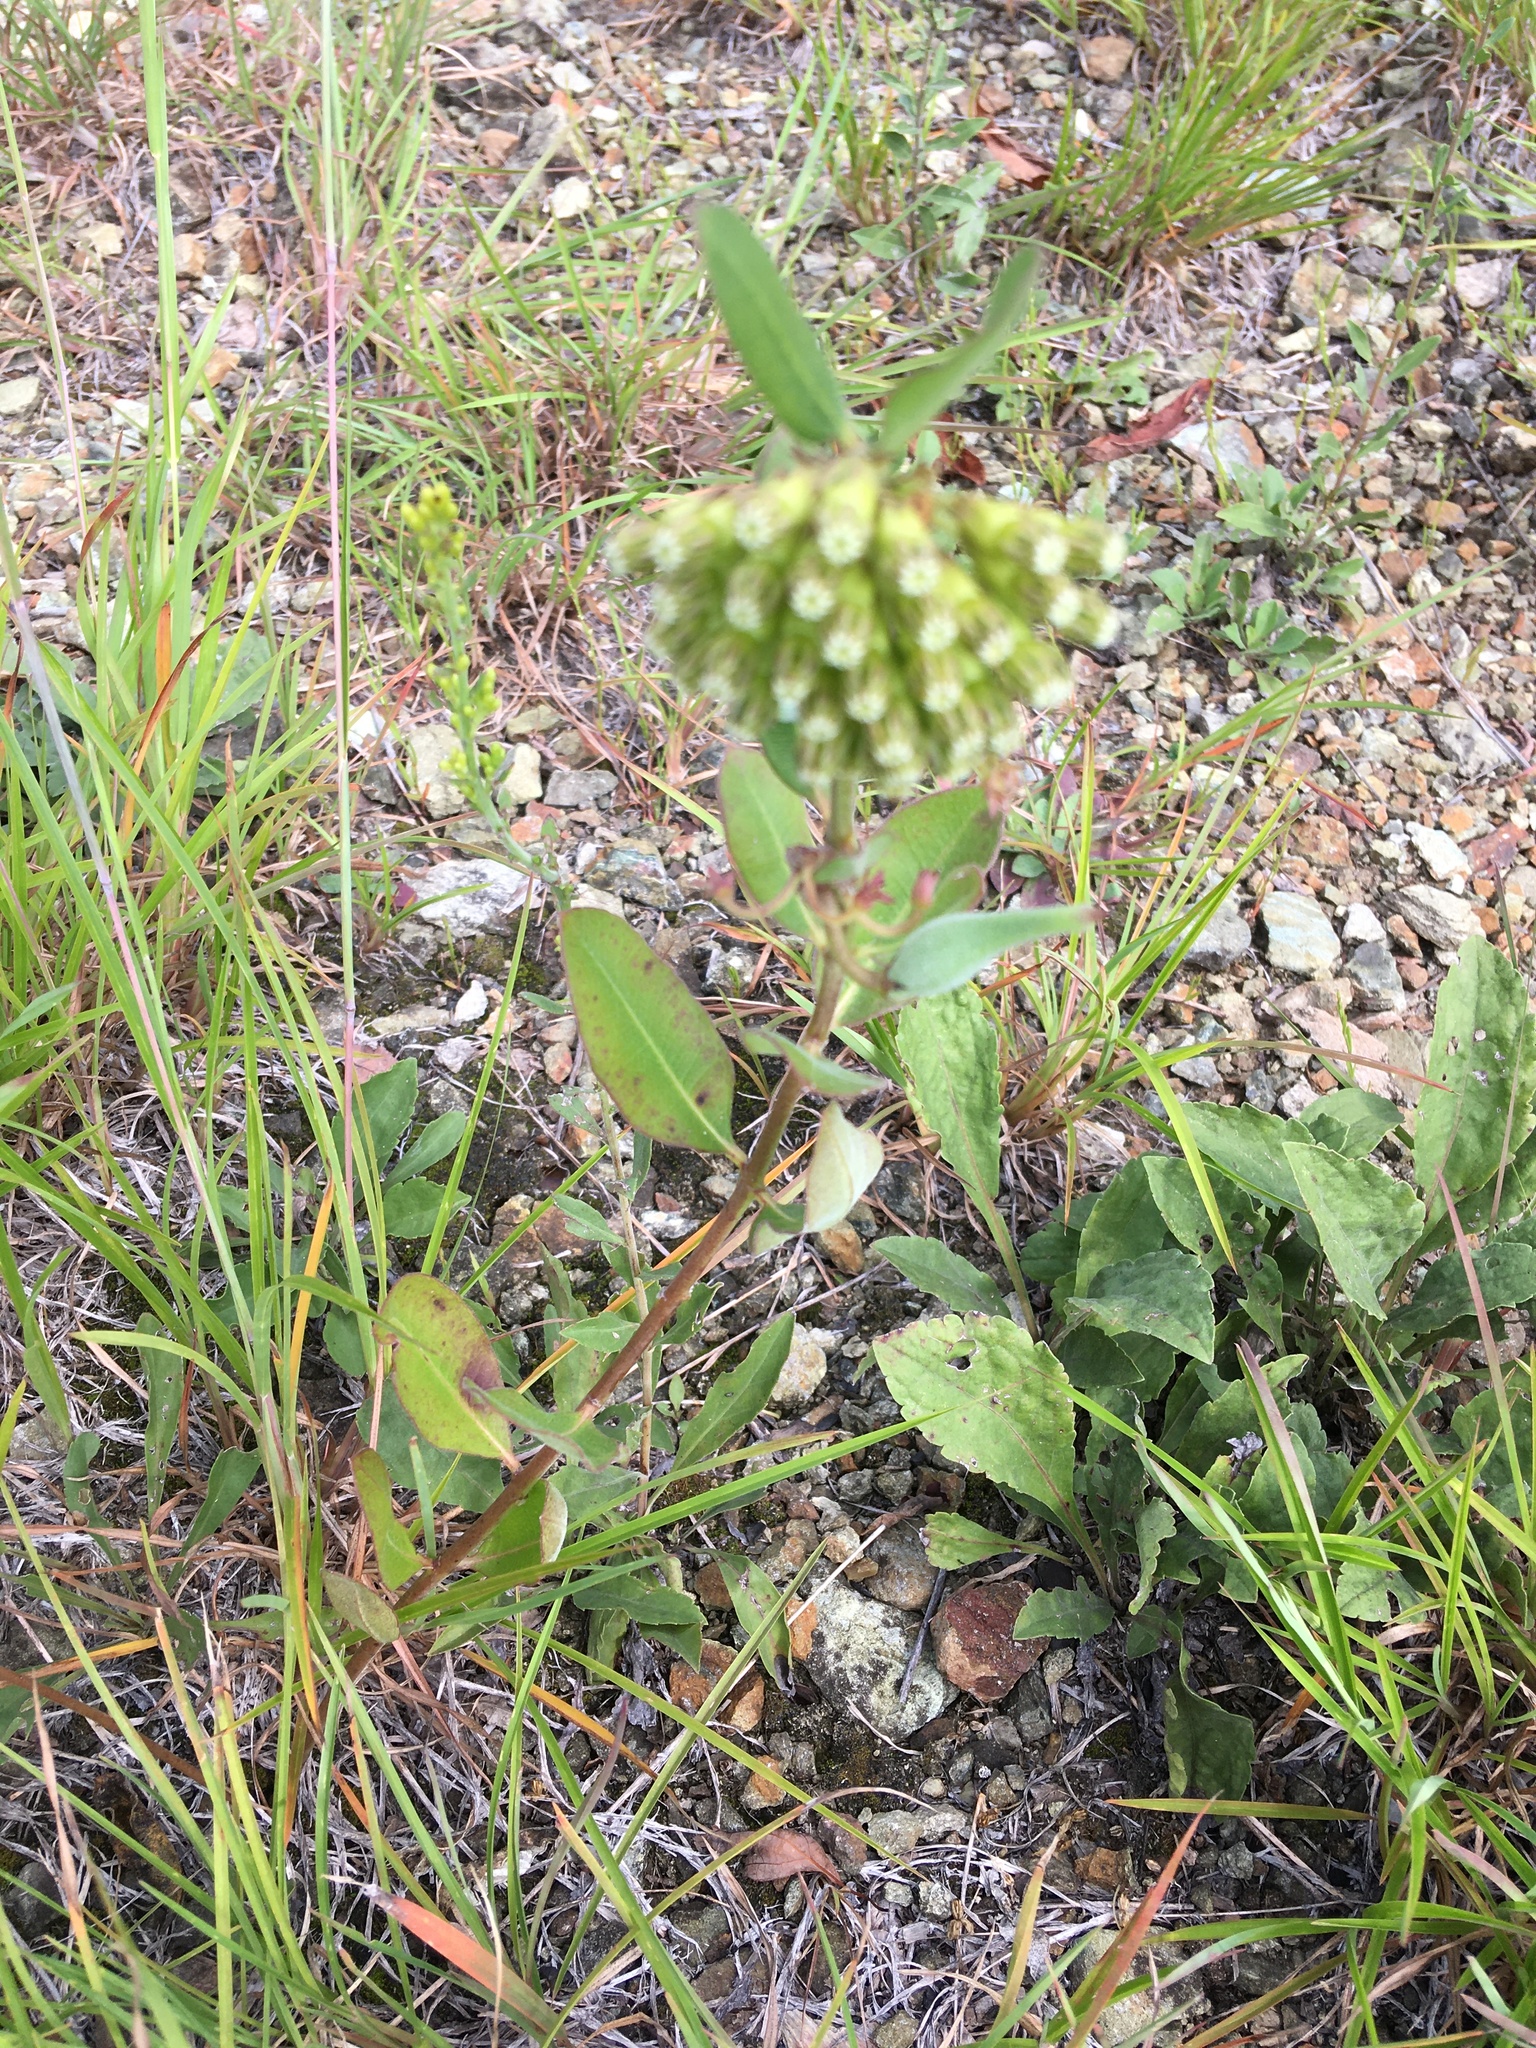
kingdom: Plantae
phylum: Tracheophyta
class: Magnoliopsida
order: Gentianales
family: Apocynaceae
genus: Asclepias
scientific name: Asclepias viridiflora
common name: Green comet milkweed
